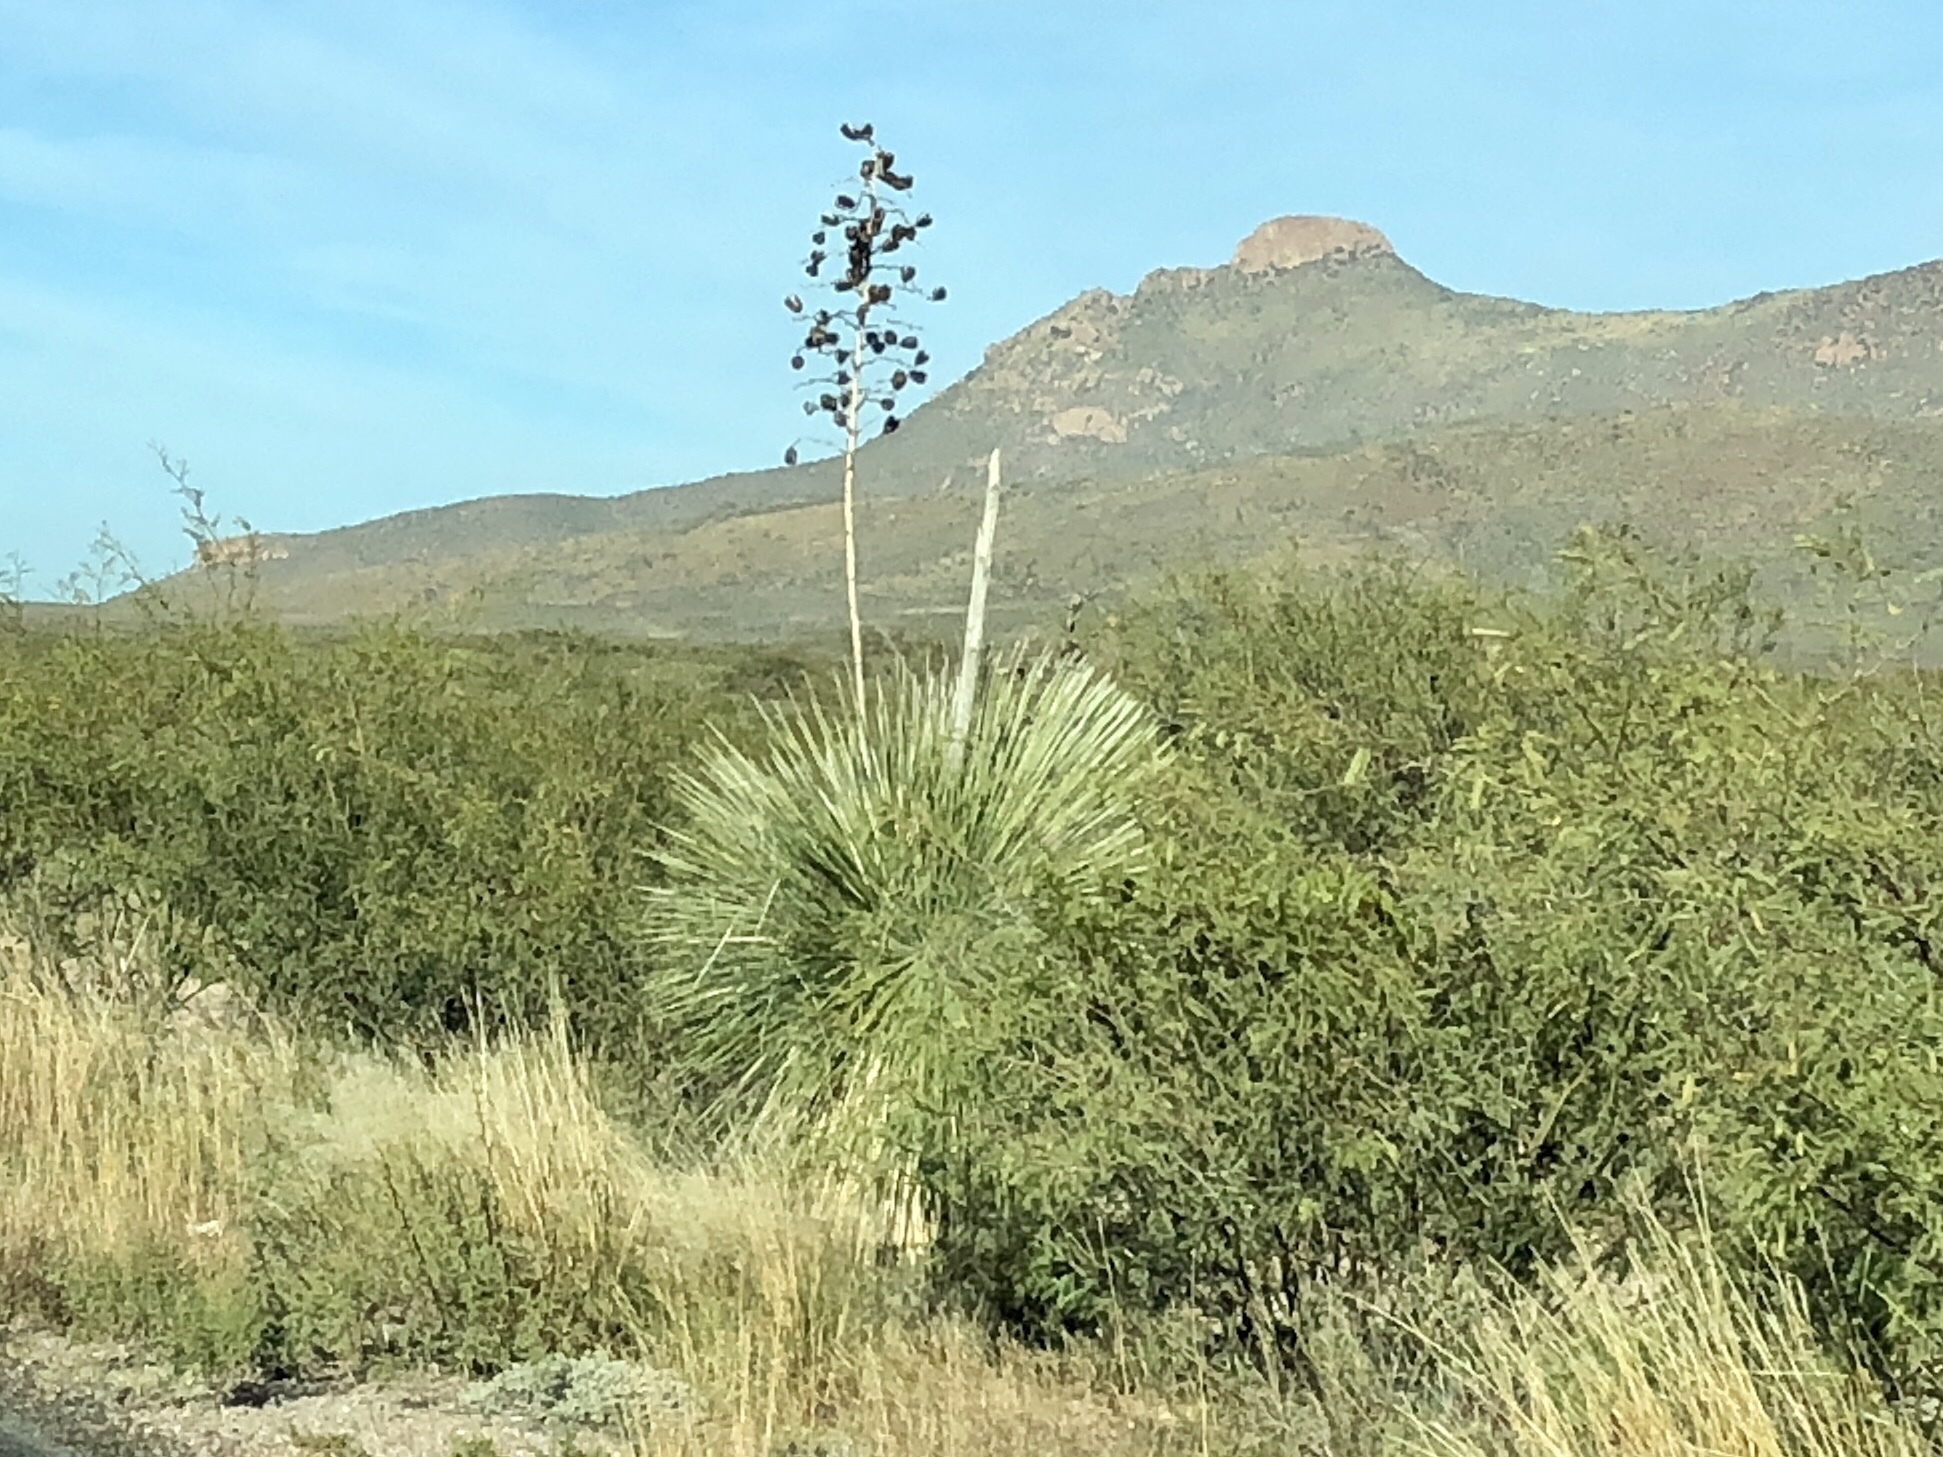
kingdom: Plantae
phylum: Tracheophyta
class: Liliopsida
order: Asparagales
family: Asparagaceae
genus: Yucca
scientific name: Yucca elata
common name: Palmella
